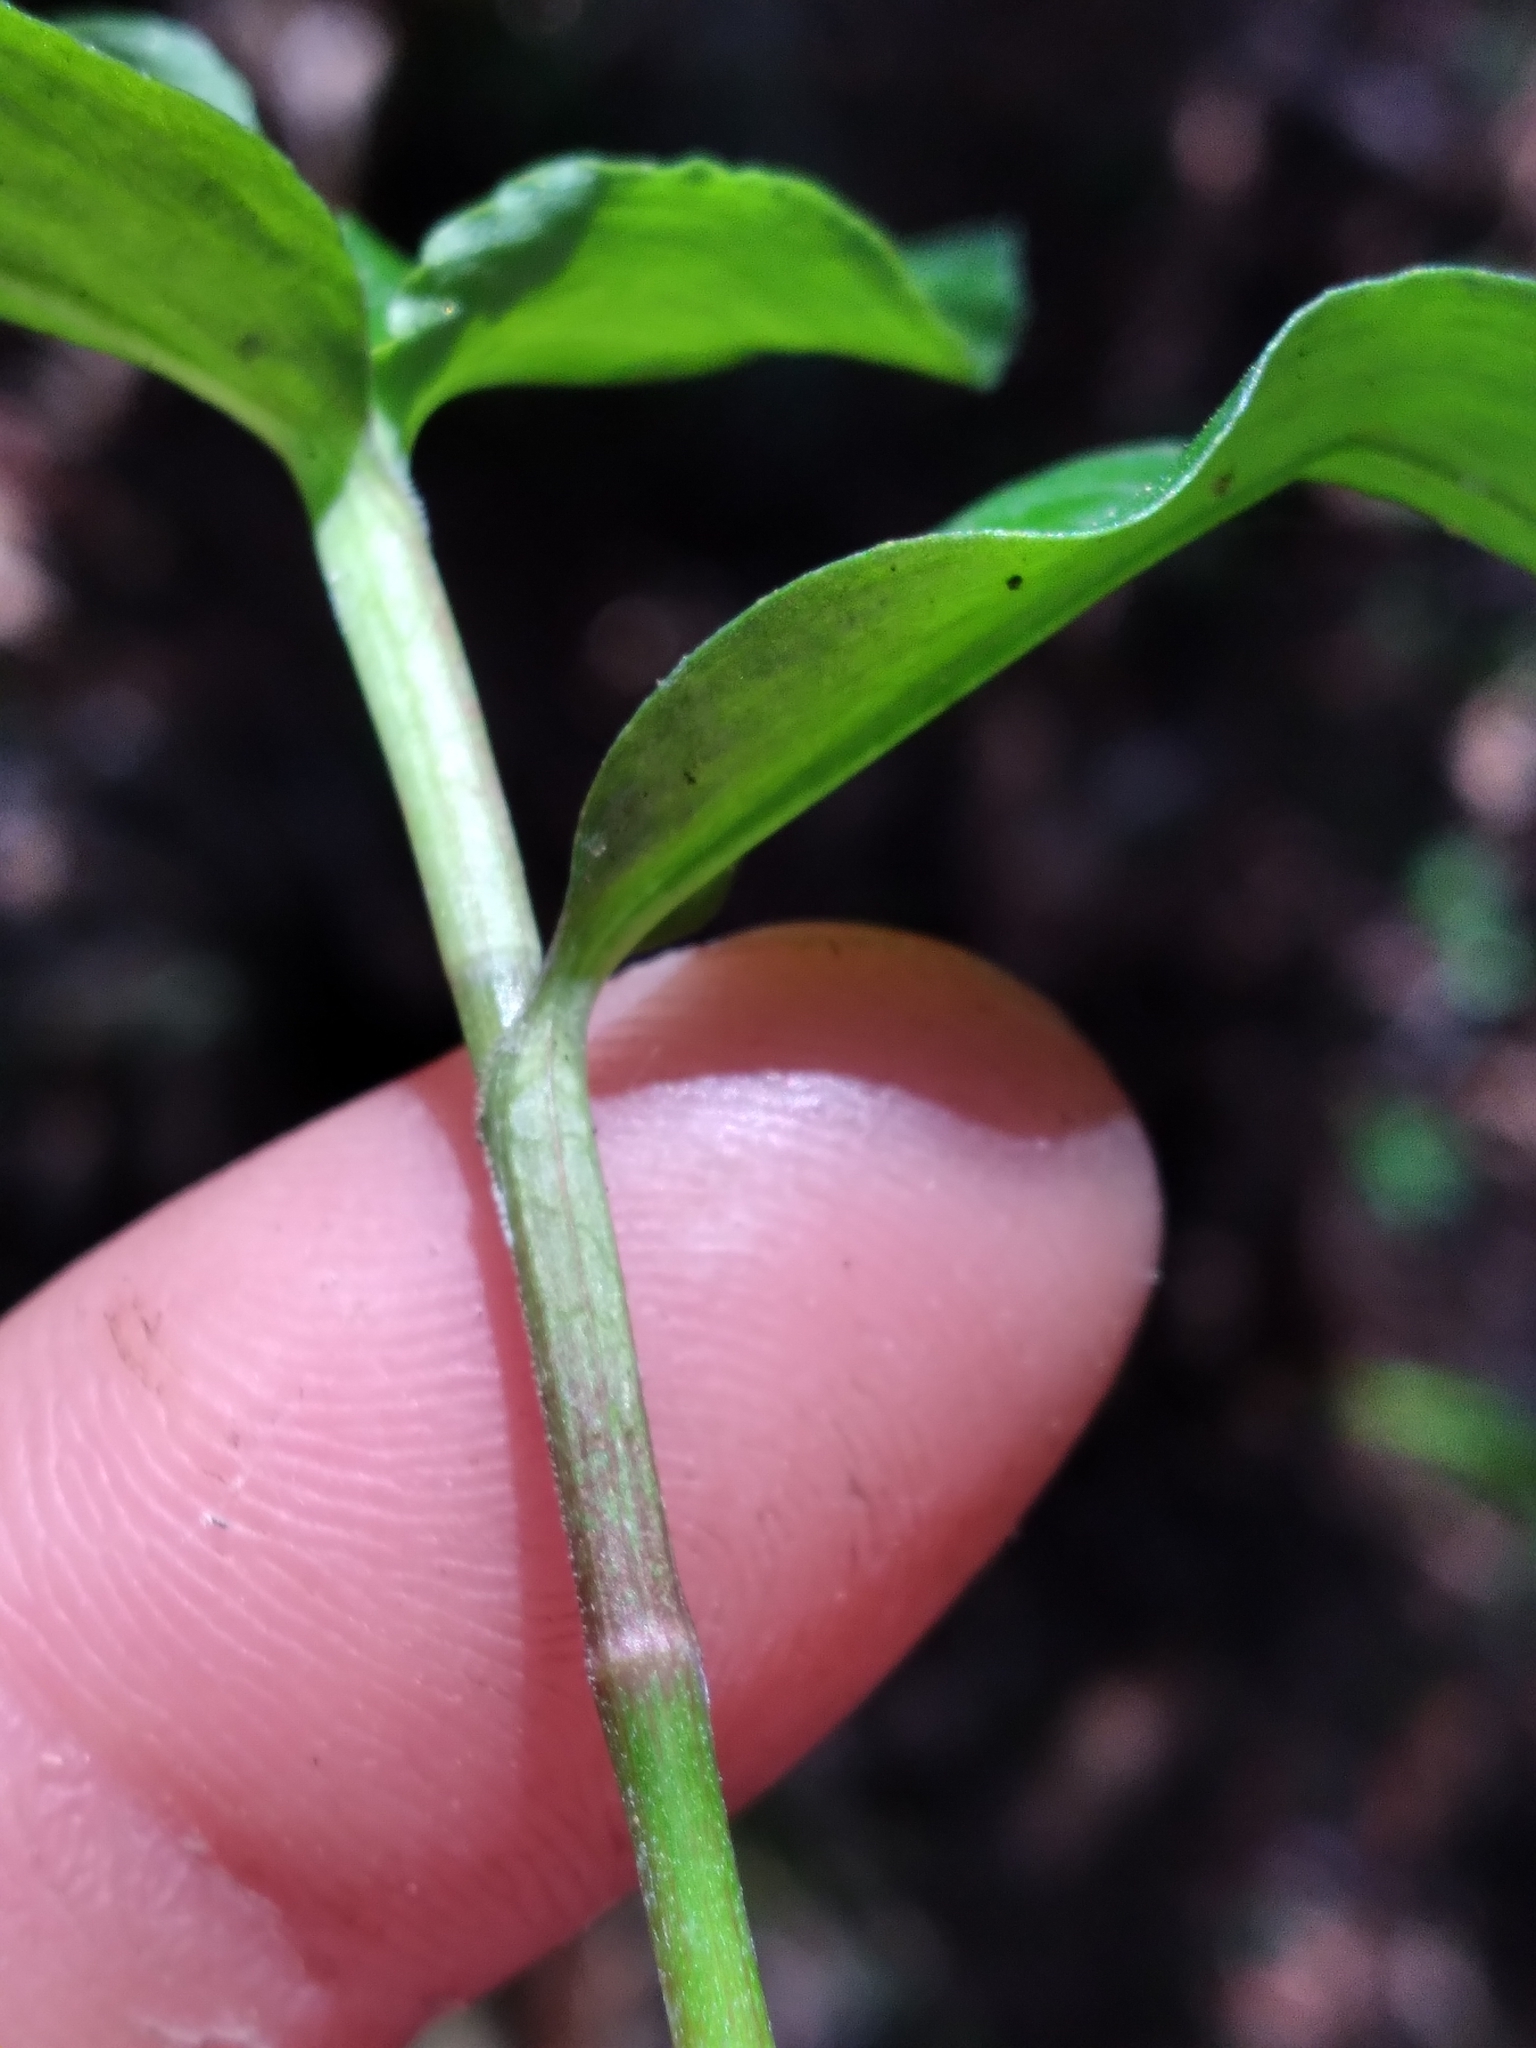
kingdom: Plantae
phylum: Tracheophyta
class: Liliopsida
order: Commelinales
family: Commelinaceae
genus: Commelina
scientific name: Commelina diffusa
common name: Climbing dayflower
